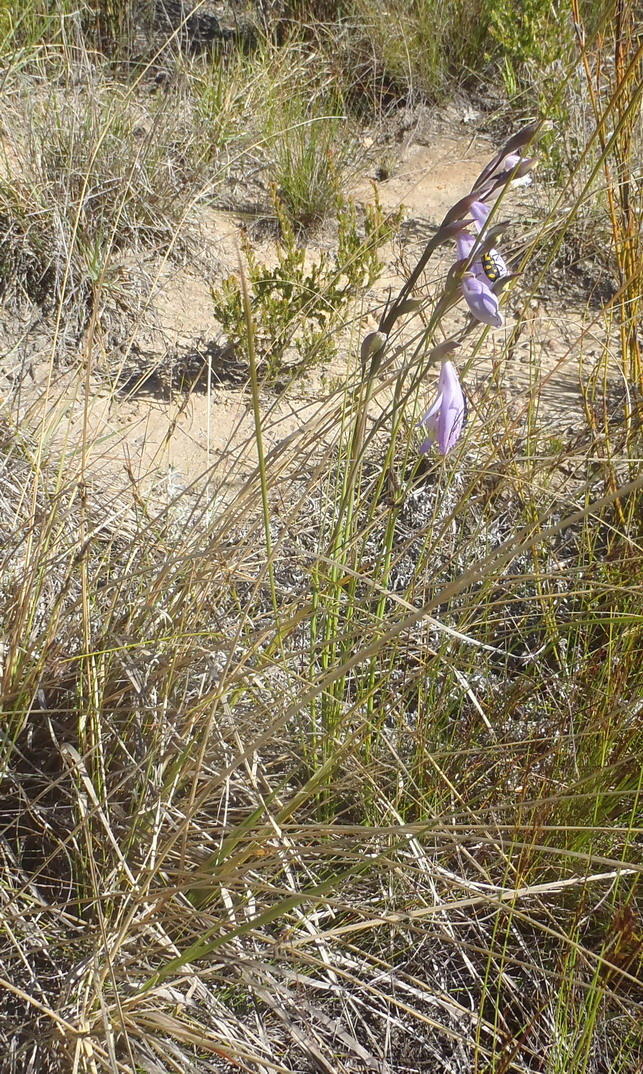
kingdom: Plantae
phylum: Tracheophyta
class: Liliopsida
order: Asparagales
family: Iridaceae
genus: Gladiolus
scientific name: Gladiolus rogersii
